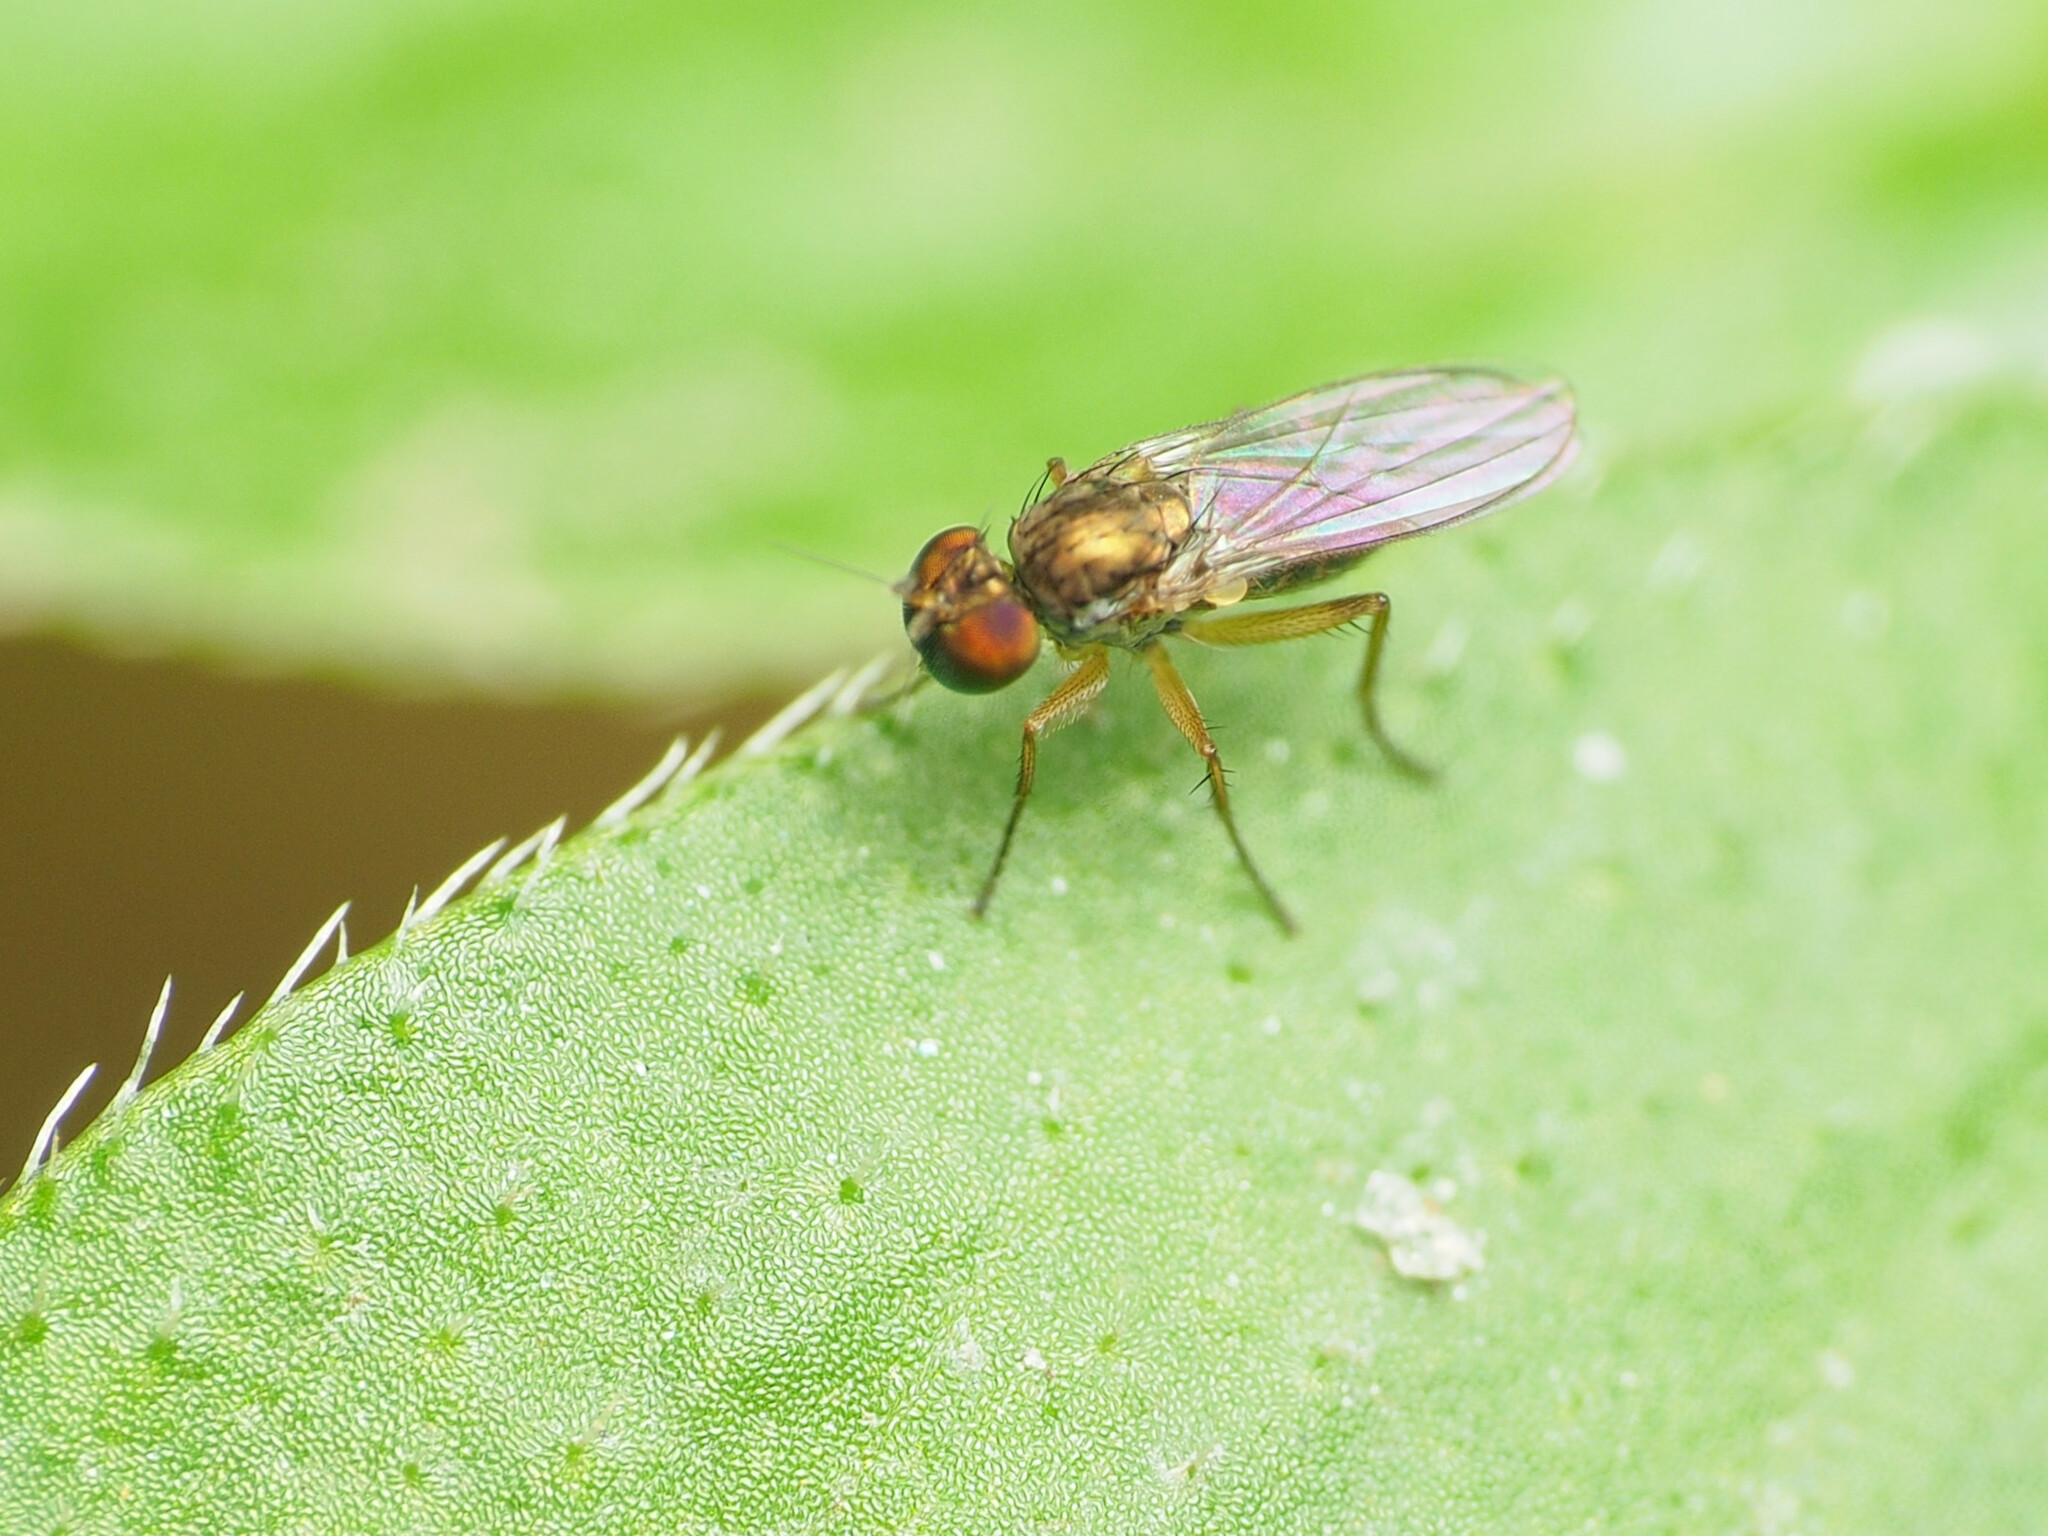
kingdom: Animalia
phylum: Arthropoda
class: Insecta
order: Diptera
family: Dolichopodidae
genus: Chrysotus
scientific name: Chrysotus picticornis
